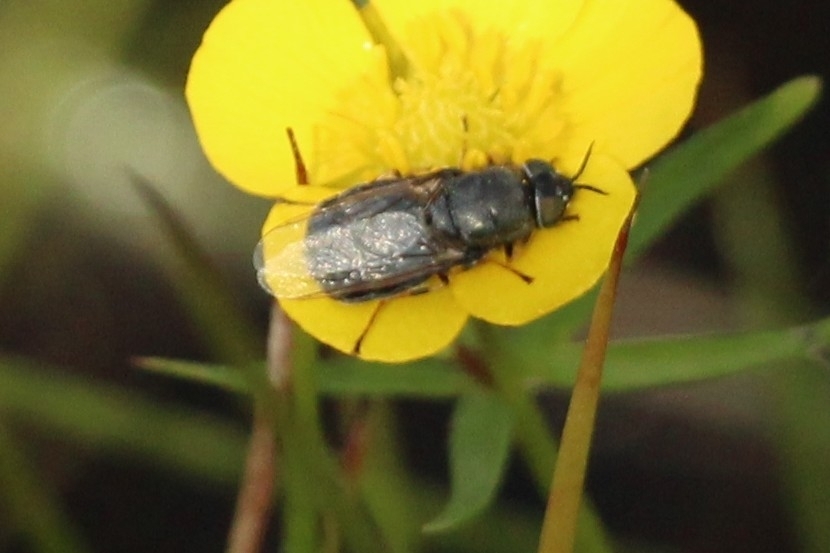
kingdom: Animalia
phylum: Arthropoda
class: Insecta
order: Diptera
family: Stratiomyidae
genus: Odontomyia
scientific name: Odontomyia tigrina
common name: Black colonel
